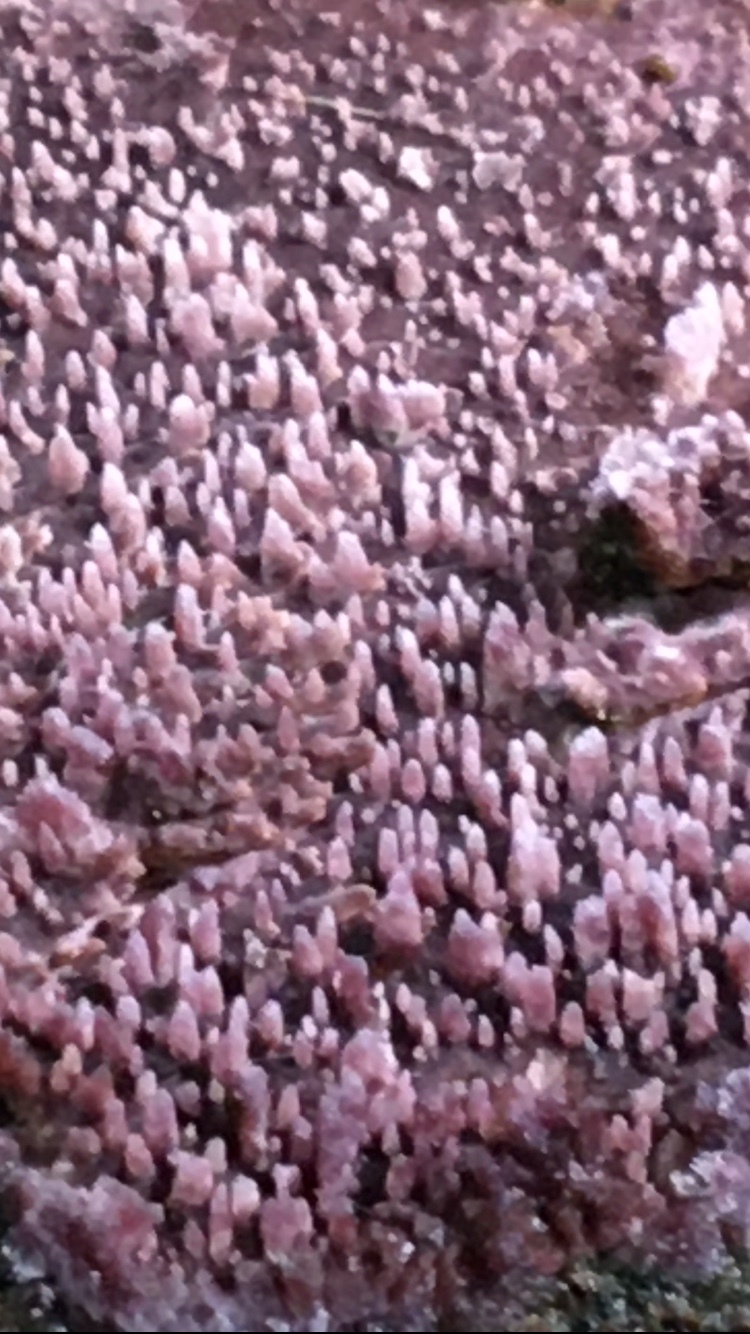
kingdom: Fungi
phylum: Basidiomycota
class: Agaricomycetes
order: Polyporales
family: Phanerochaetaceae
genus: Phlebiopsis
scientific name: Phlebiopsis dregeana
